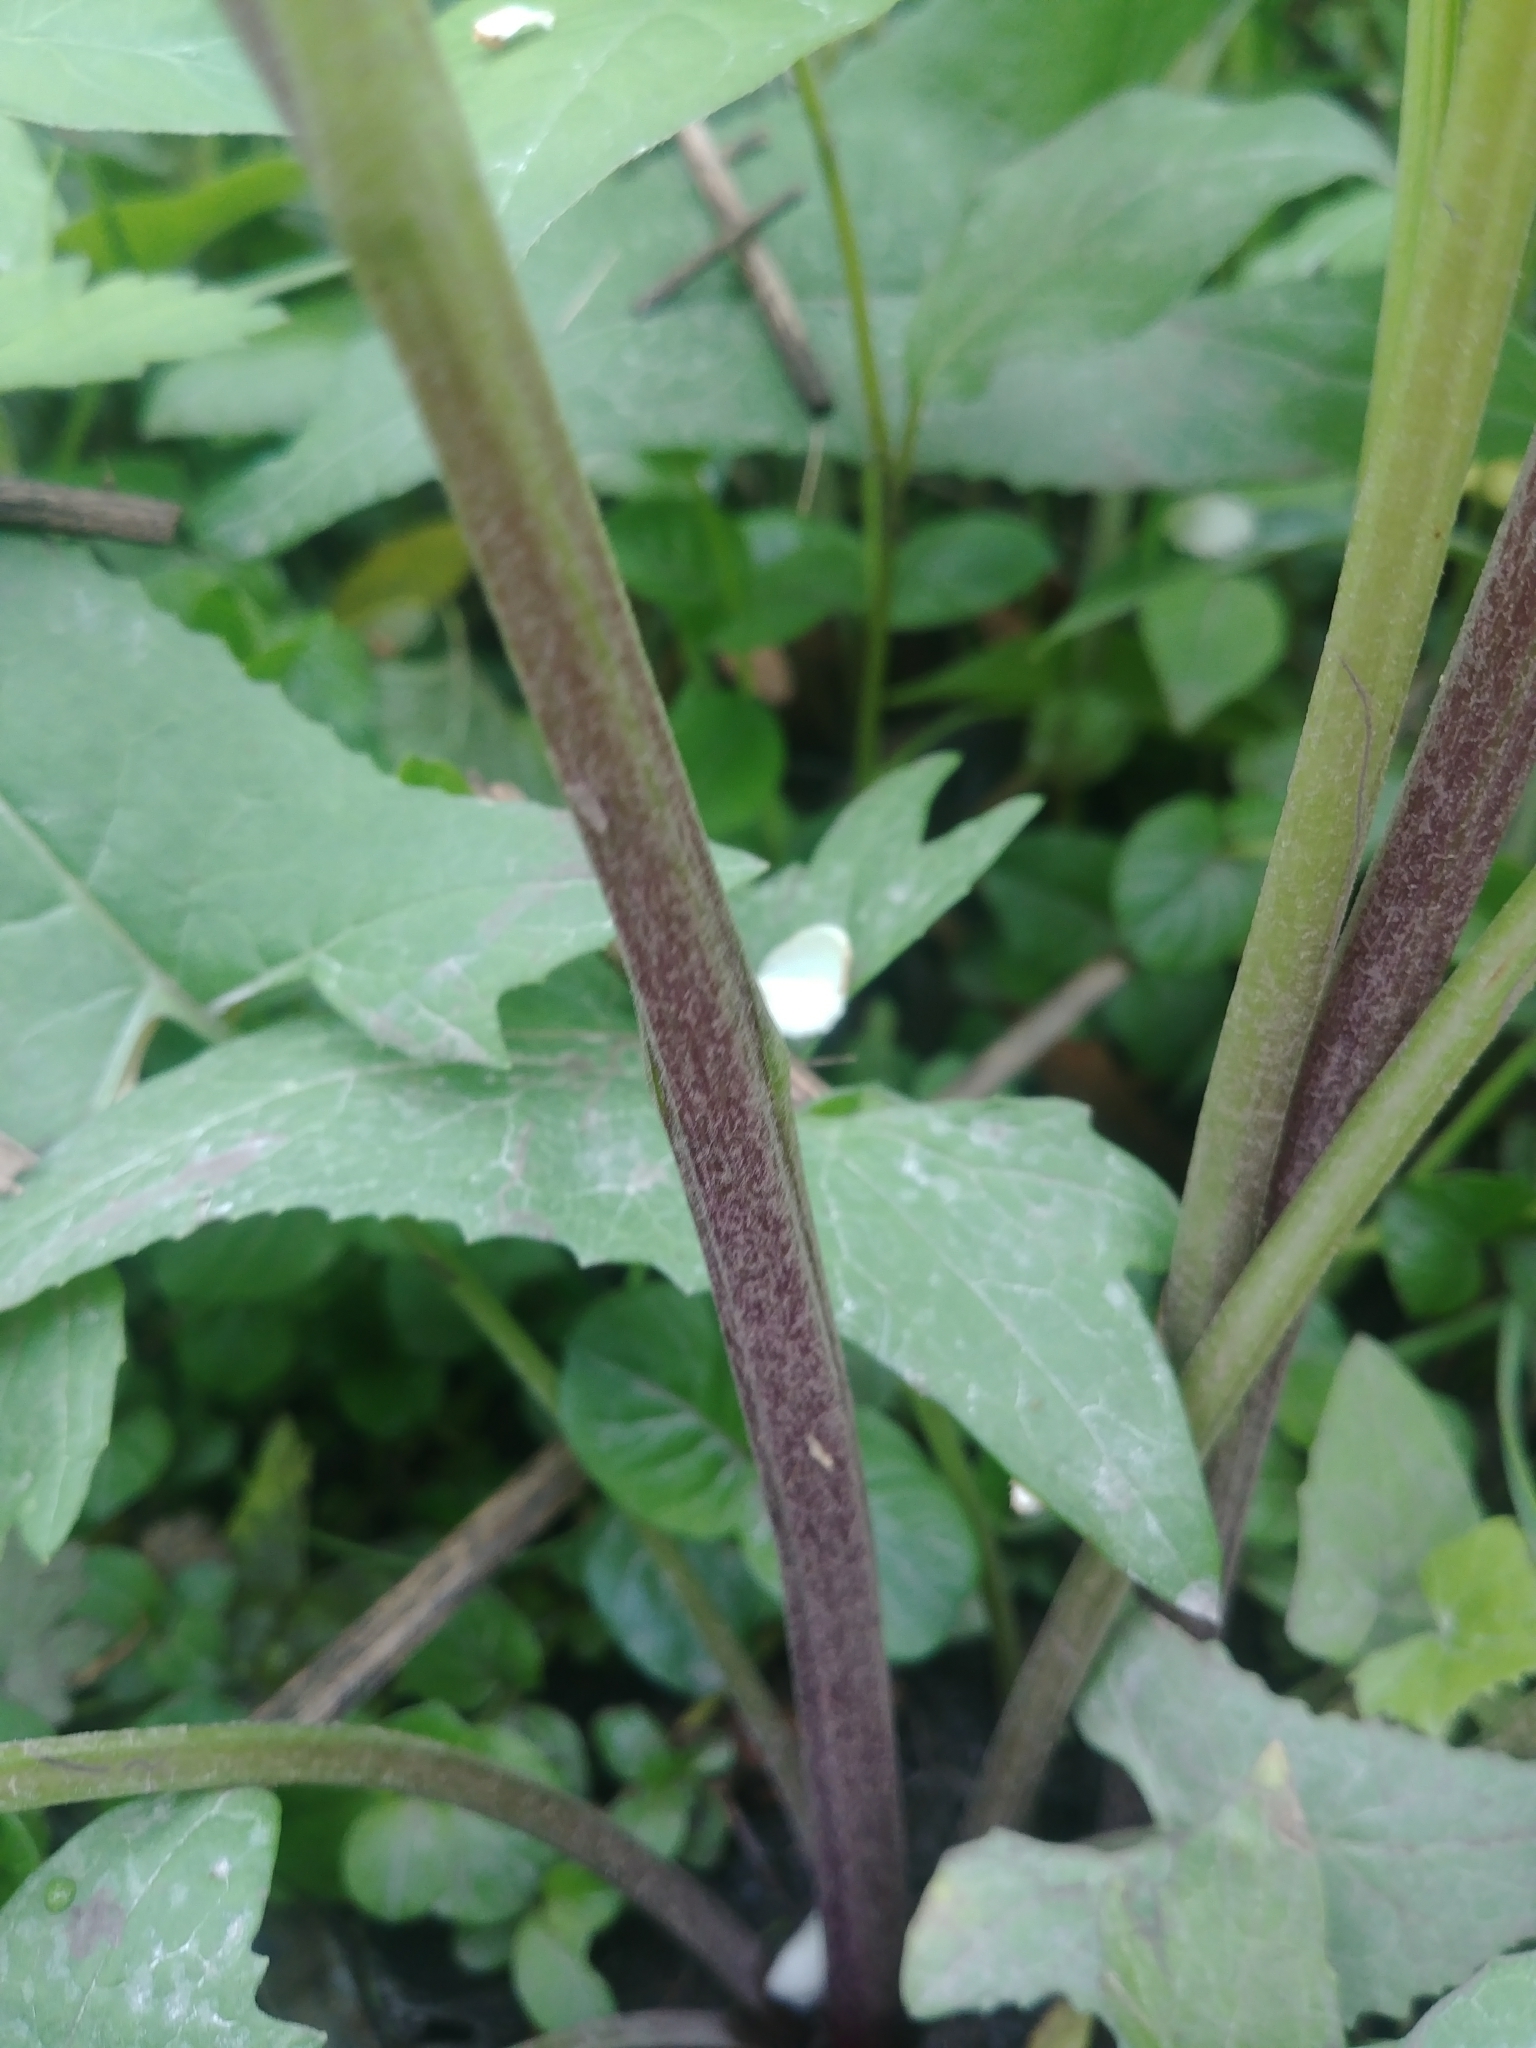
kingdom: Plantae
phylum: Tracheophyta
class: Magnoliopsida
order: Asterales
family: Asteraceae
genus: Hasteola
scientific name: Hasteola suaveolens
